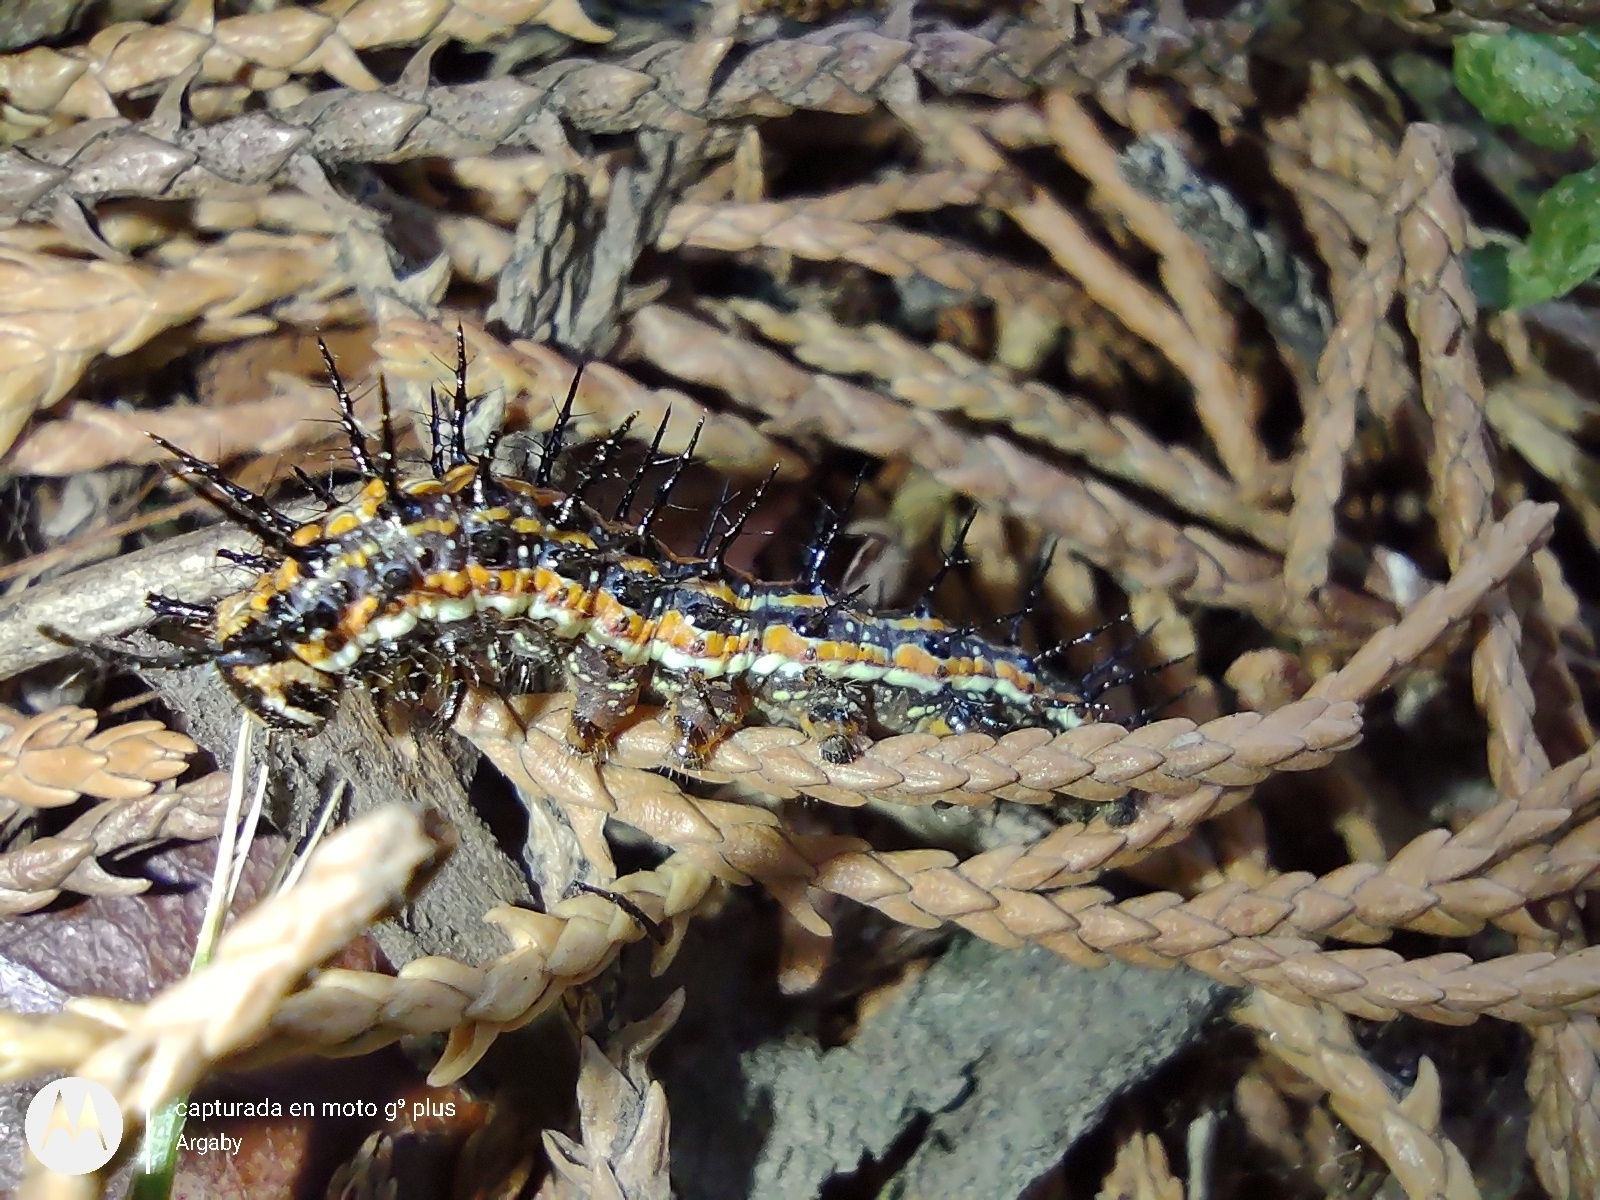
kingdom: Animalia
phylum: Arthropoda
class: Insecta
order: Lepidoptera
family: Nymphalidae
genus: Dione
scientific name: Dione vanillae
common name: Gulf fritillary
